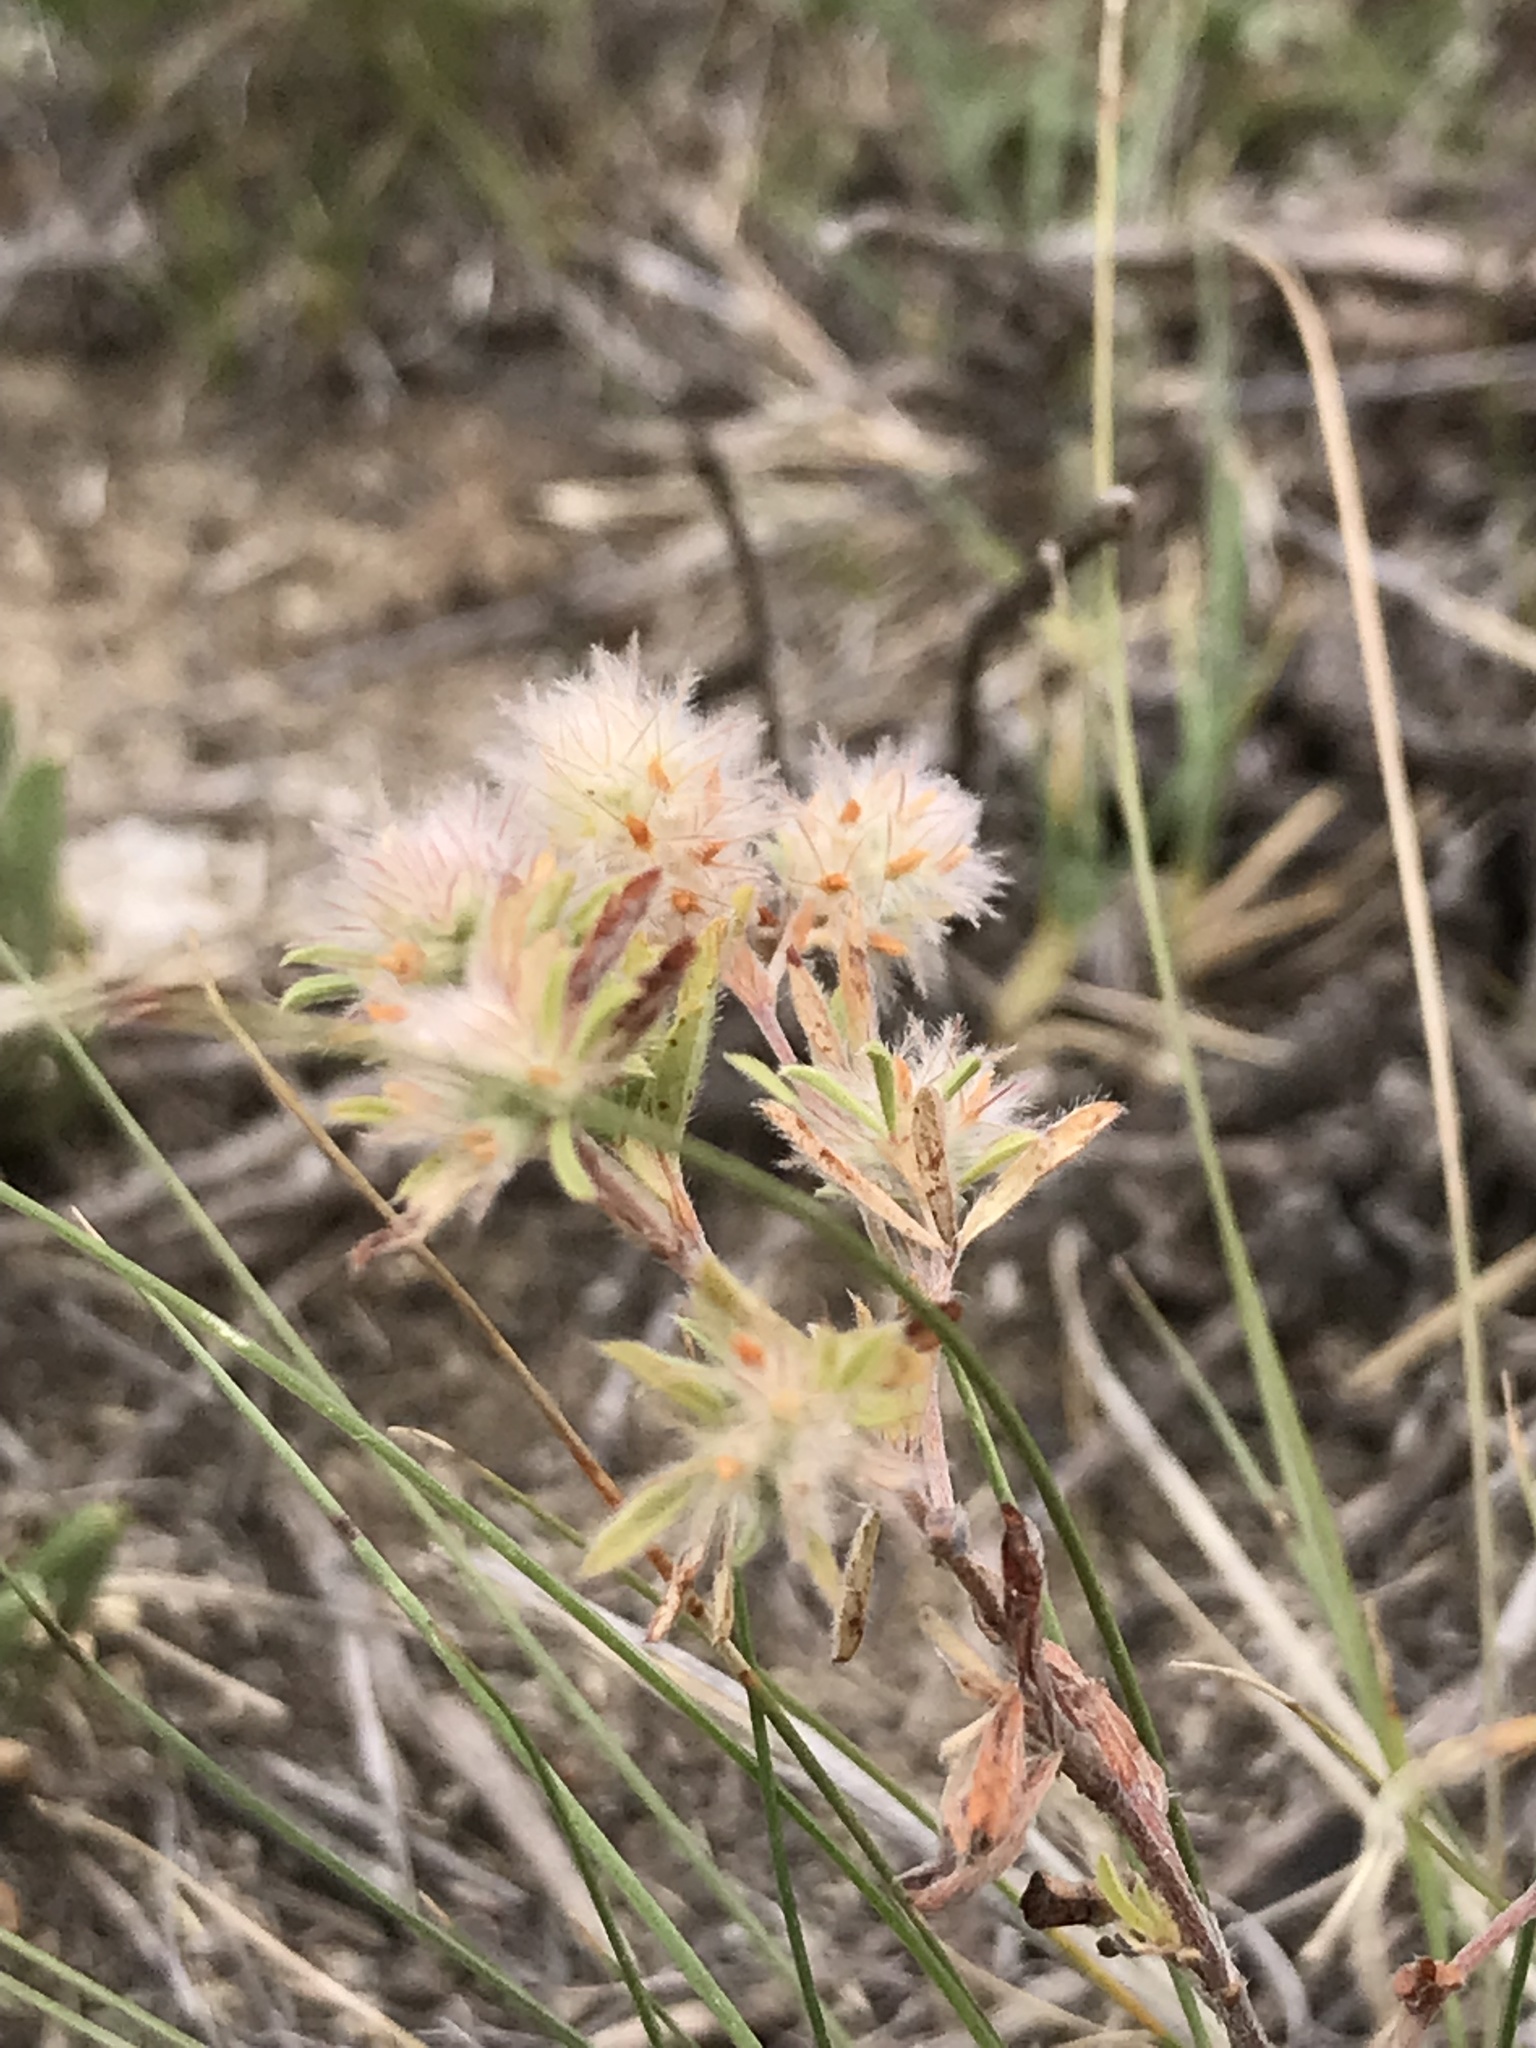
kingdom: Plantae
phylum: Tracheophyta
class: Magnoliopsida
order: Fabales
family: Fabaceae
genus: Trifolium
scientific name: Trifolium arvense
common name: Hare's-foot clover
